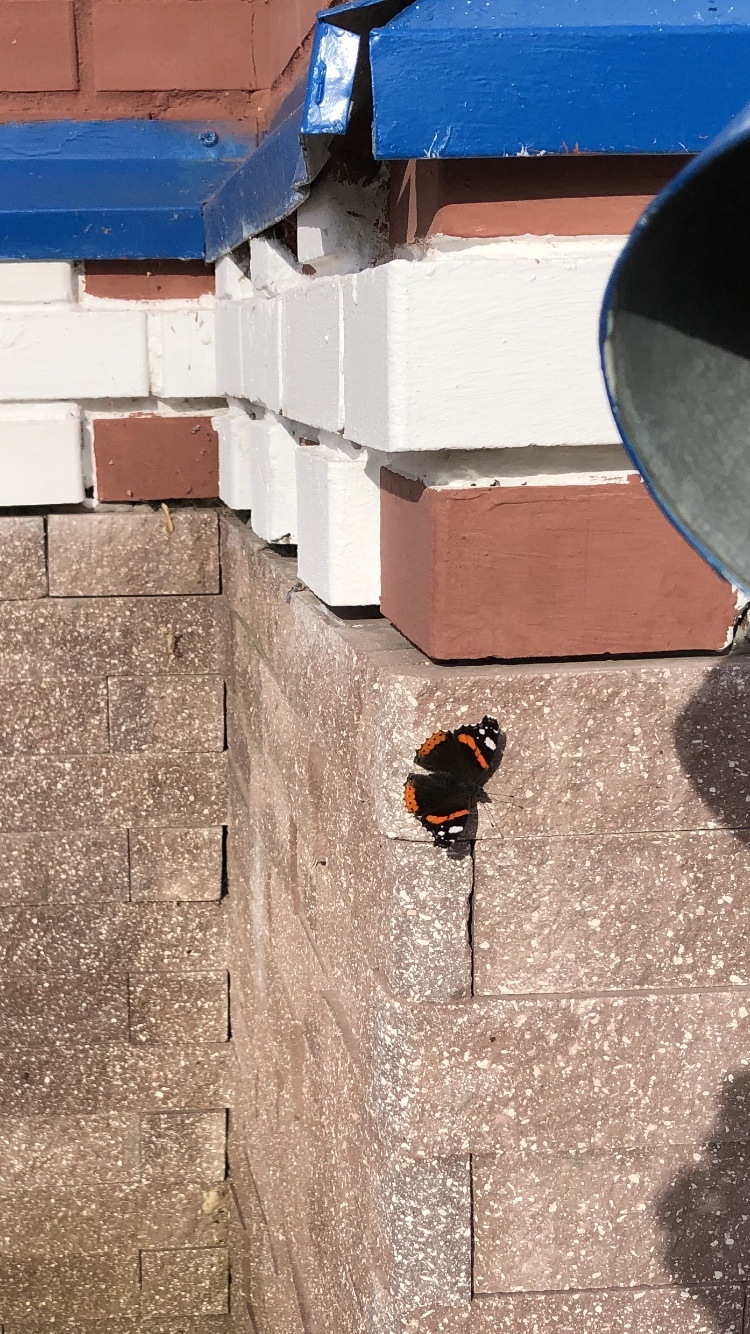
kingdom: Animalia
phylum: Arthropoda
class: Insecta
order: Lepidoptera
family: Nymphalidae
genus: Vanessa
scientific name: Vanessa atalanta
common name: Red admiral
